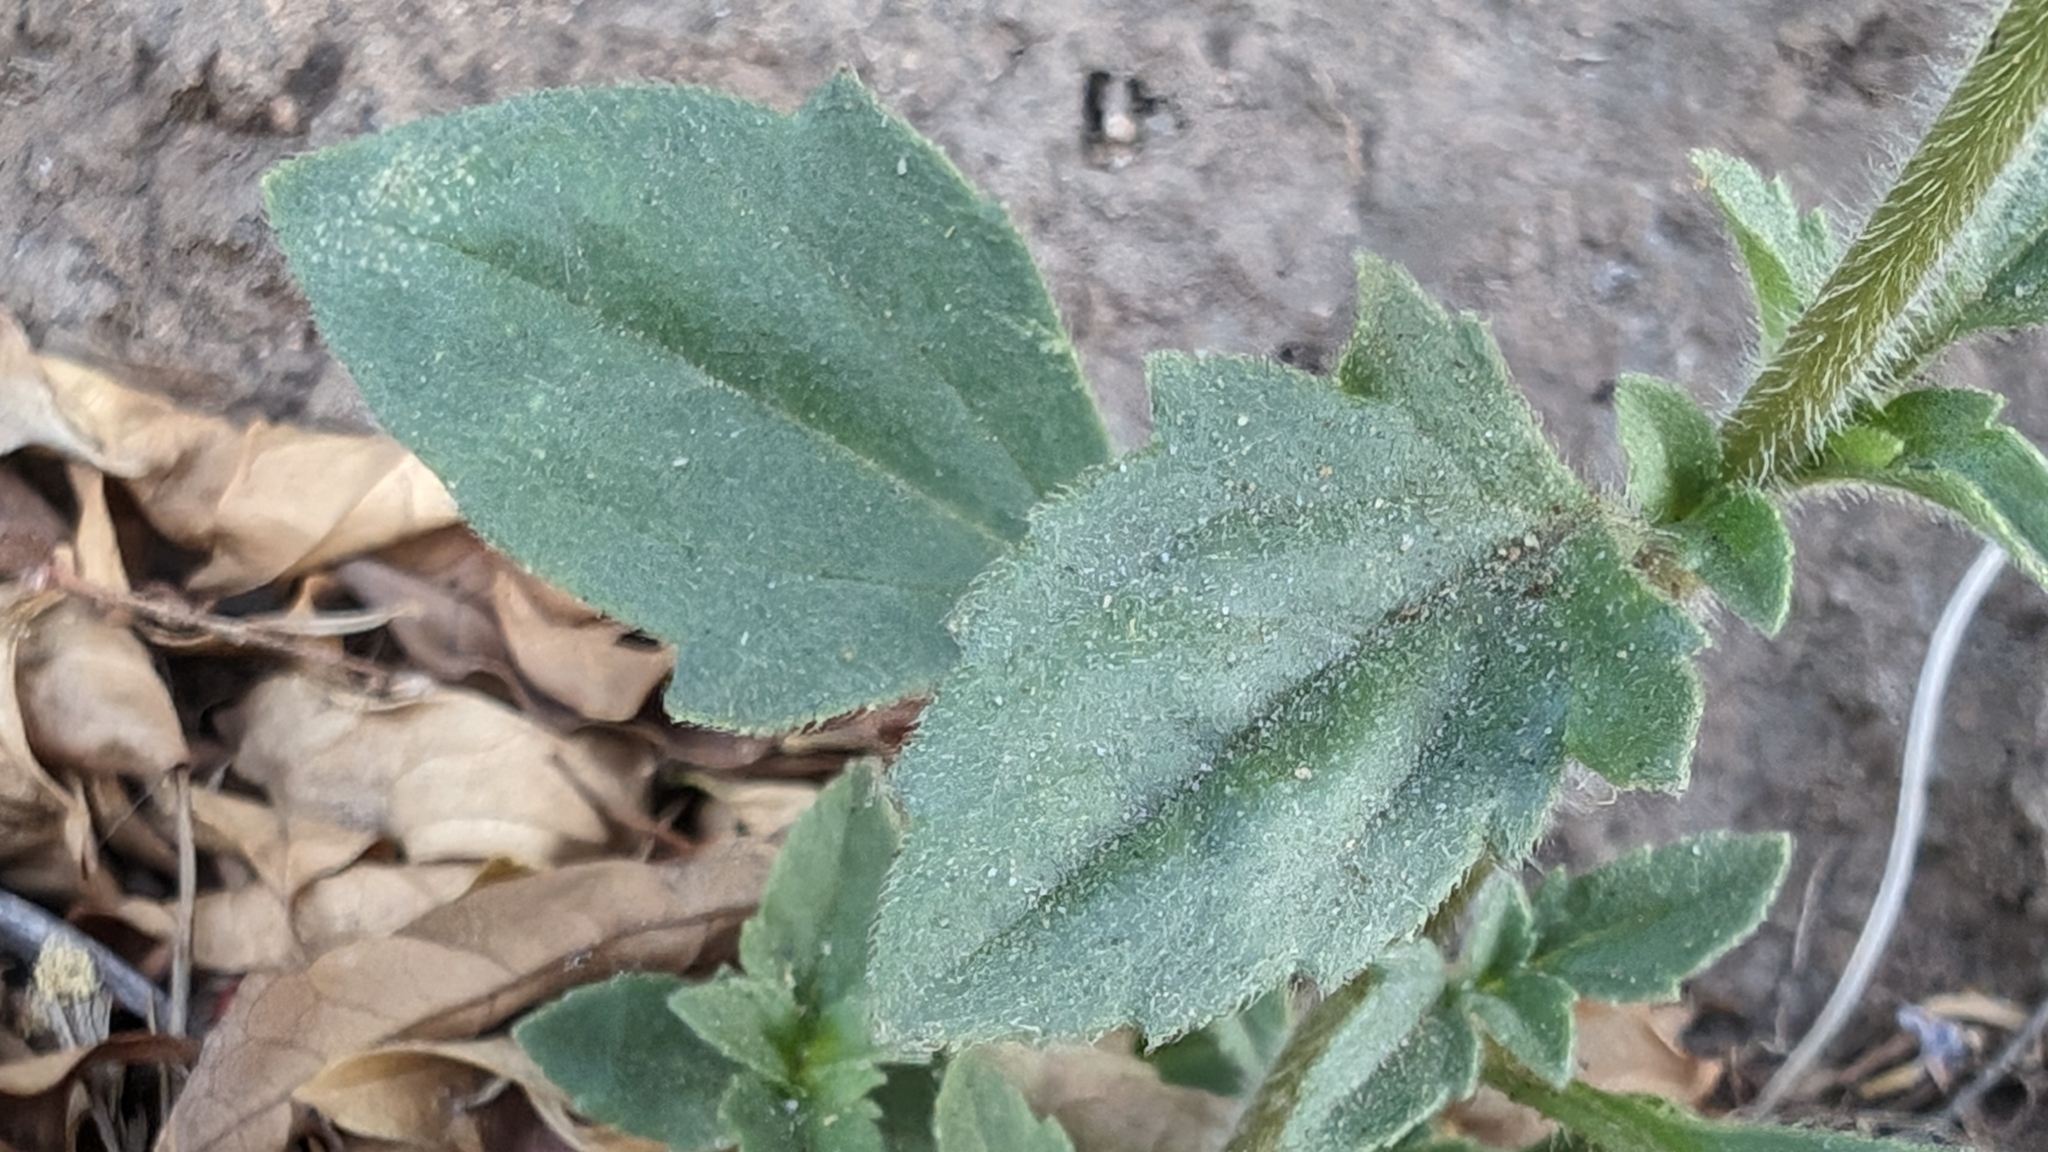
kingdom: Plantae
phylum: Tracheophyta
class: Magnoliopsida
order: Asterales
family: Asteraceae
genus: Tridax
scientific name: Tridax procumbens
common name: Coatbuttons
